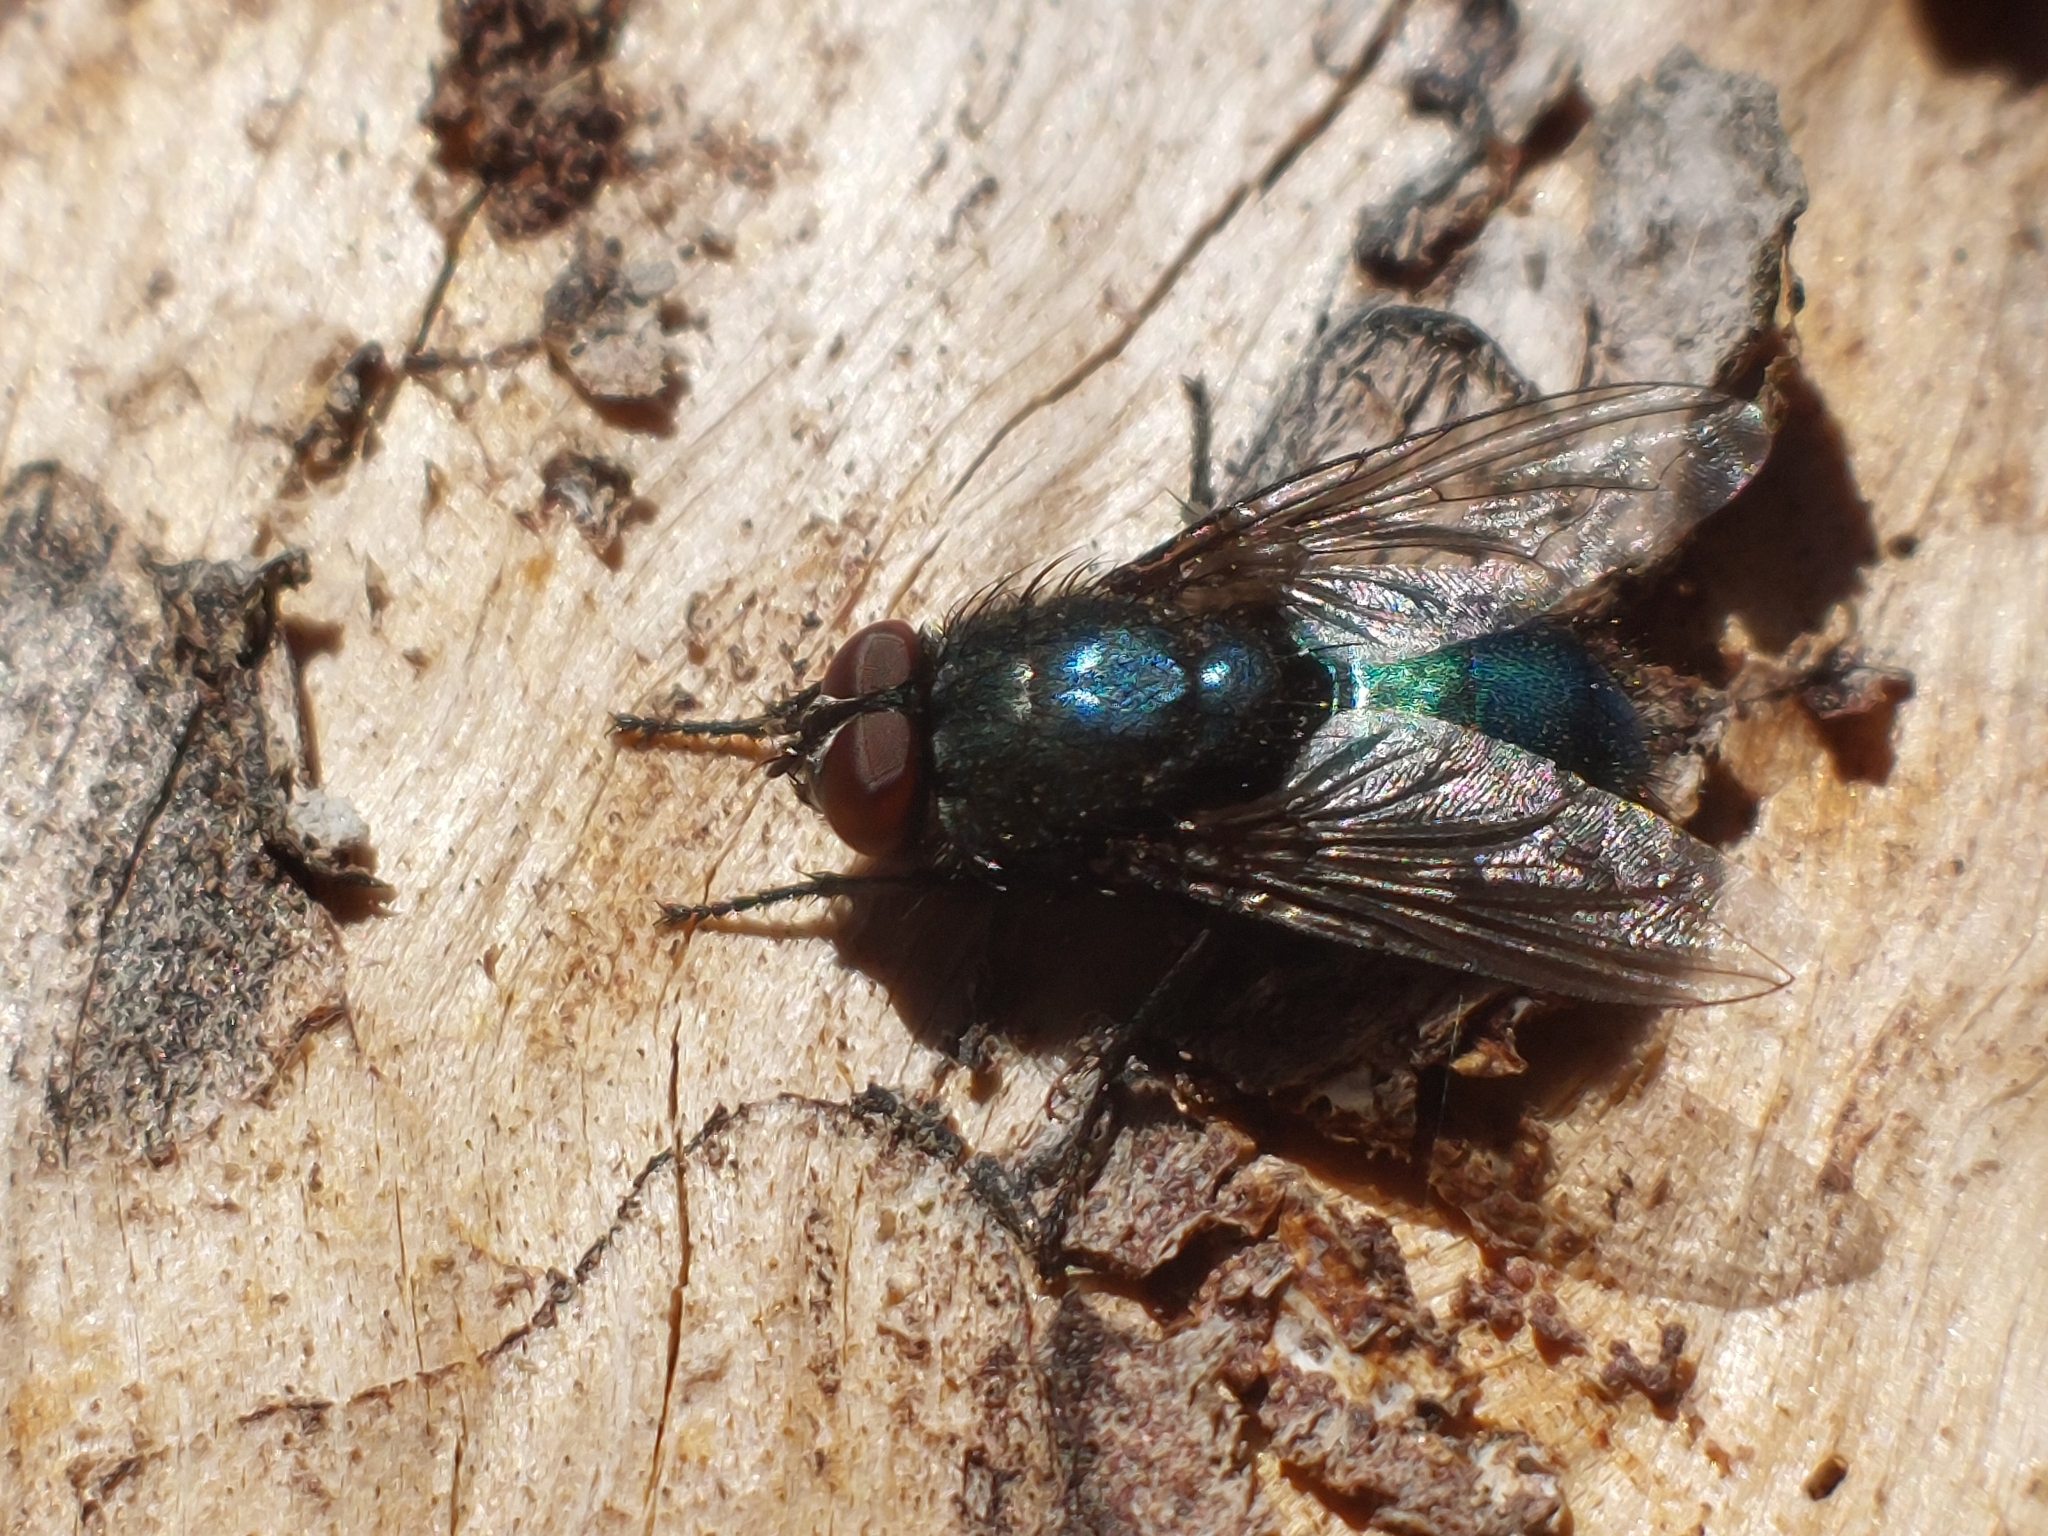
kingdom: Animalia
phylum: Arthropoda
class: Insecta
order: Diptera
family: Calliphoridae
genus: Protophormia
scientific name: Protophormia terraenovae
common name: Blackbottle
